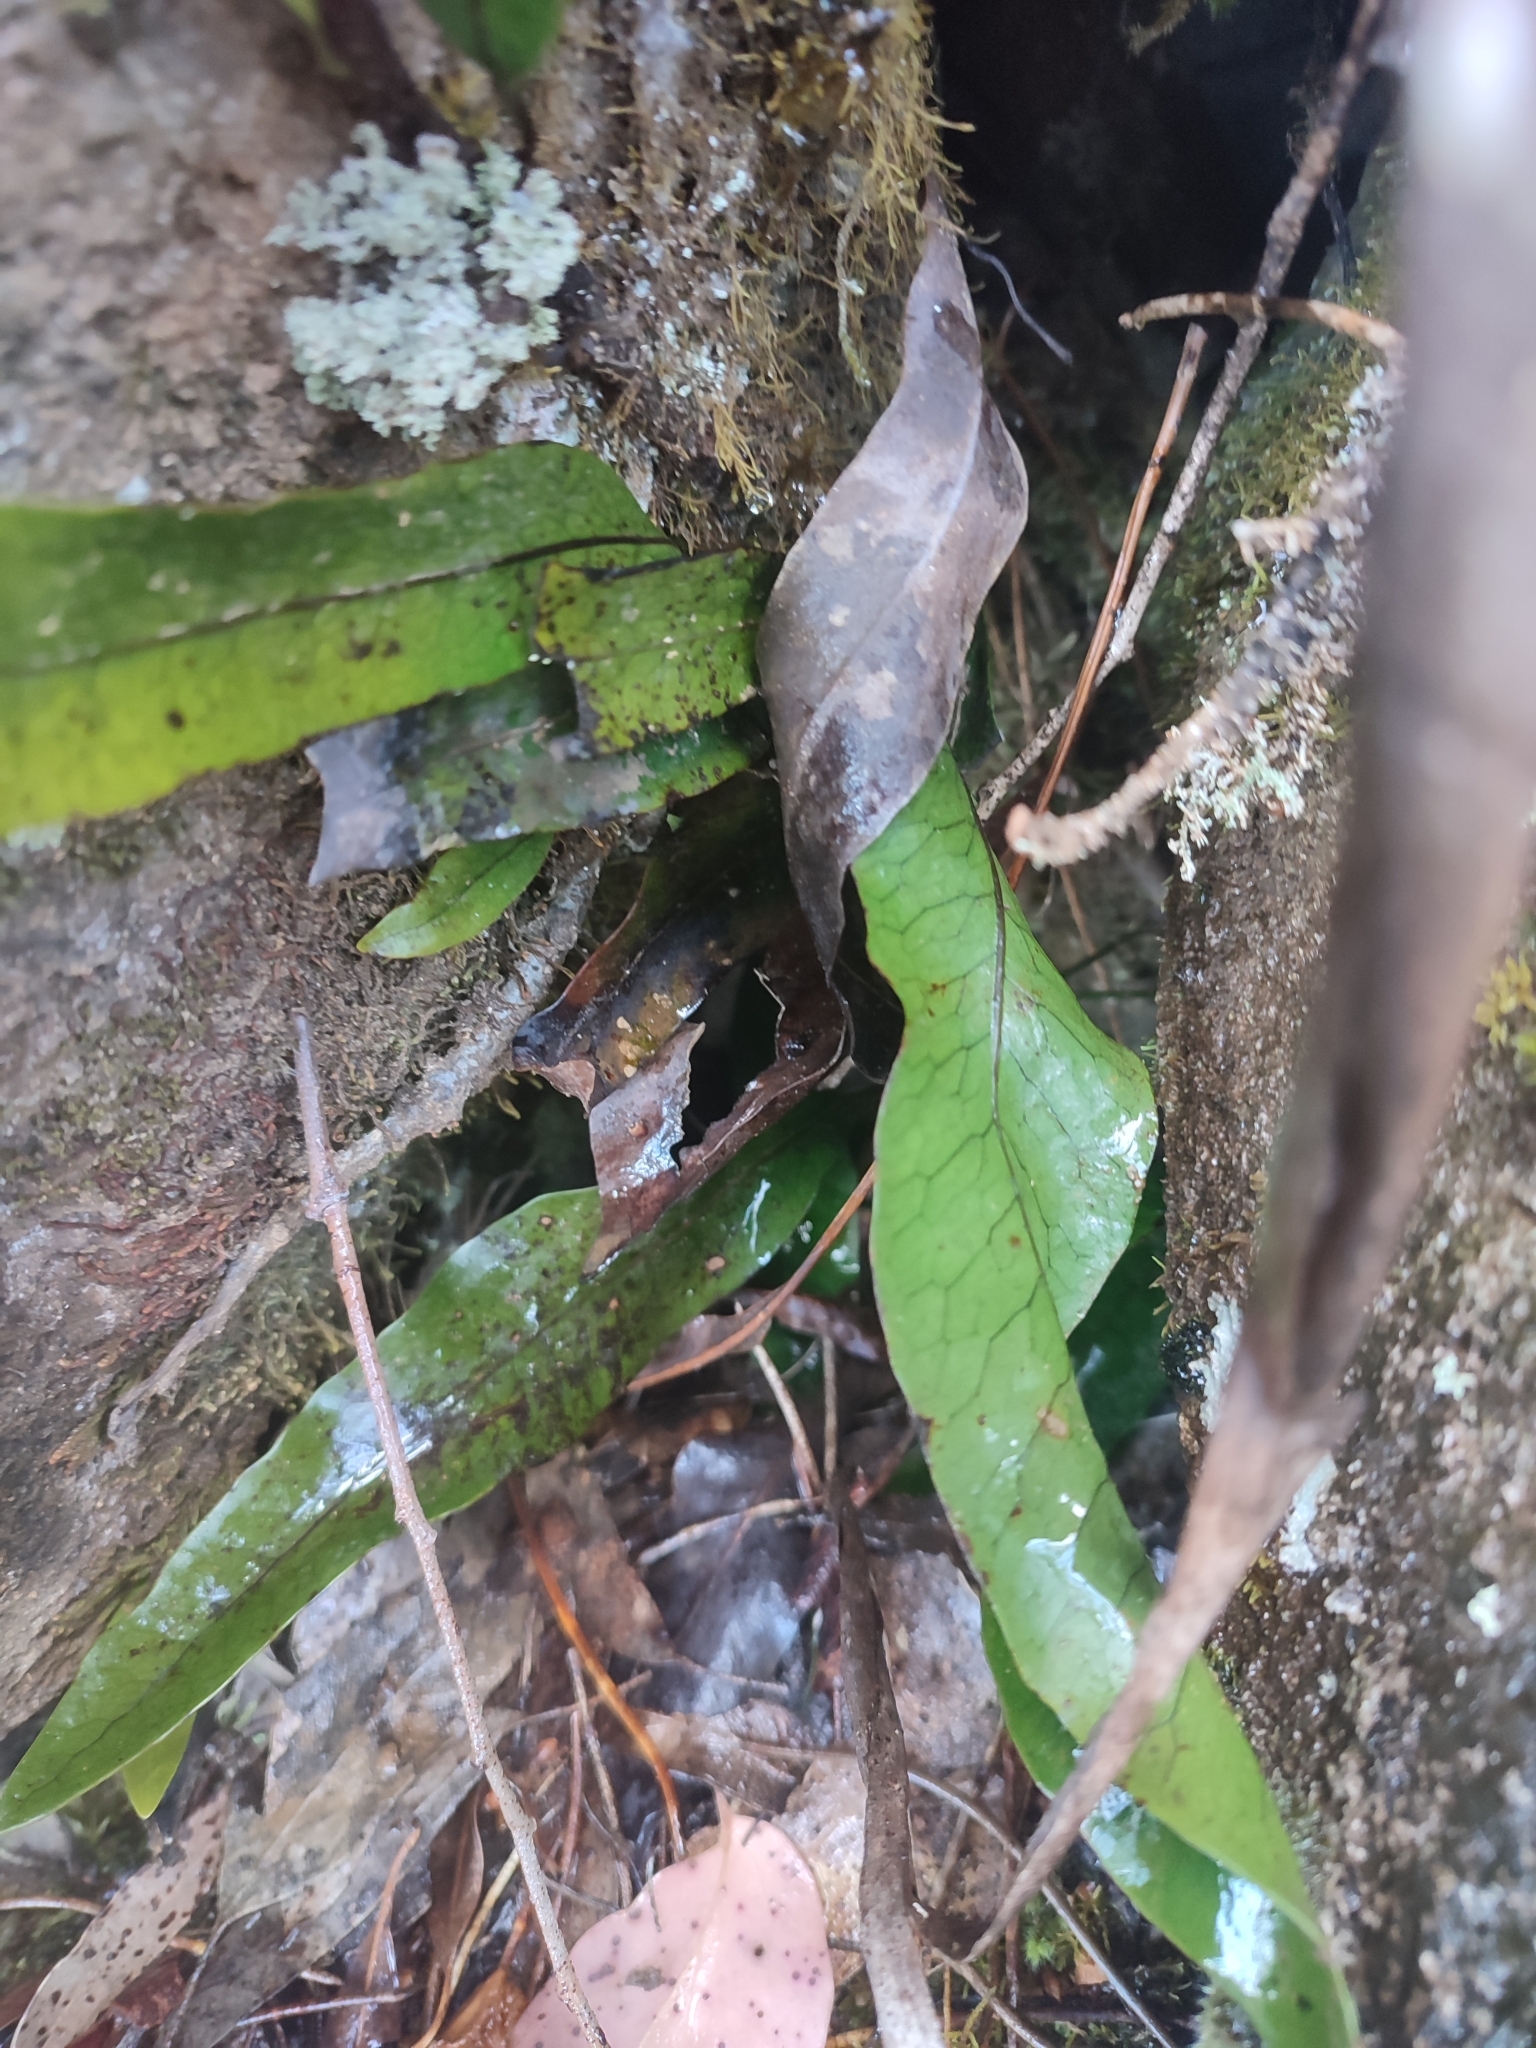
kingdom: Plantae
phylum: Tracheophyta
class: Polypodiopsida
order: Polypodiales
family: Polypodiaceae
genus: Lecanopteris
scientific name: Lecanopteris pustulata
